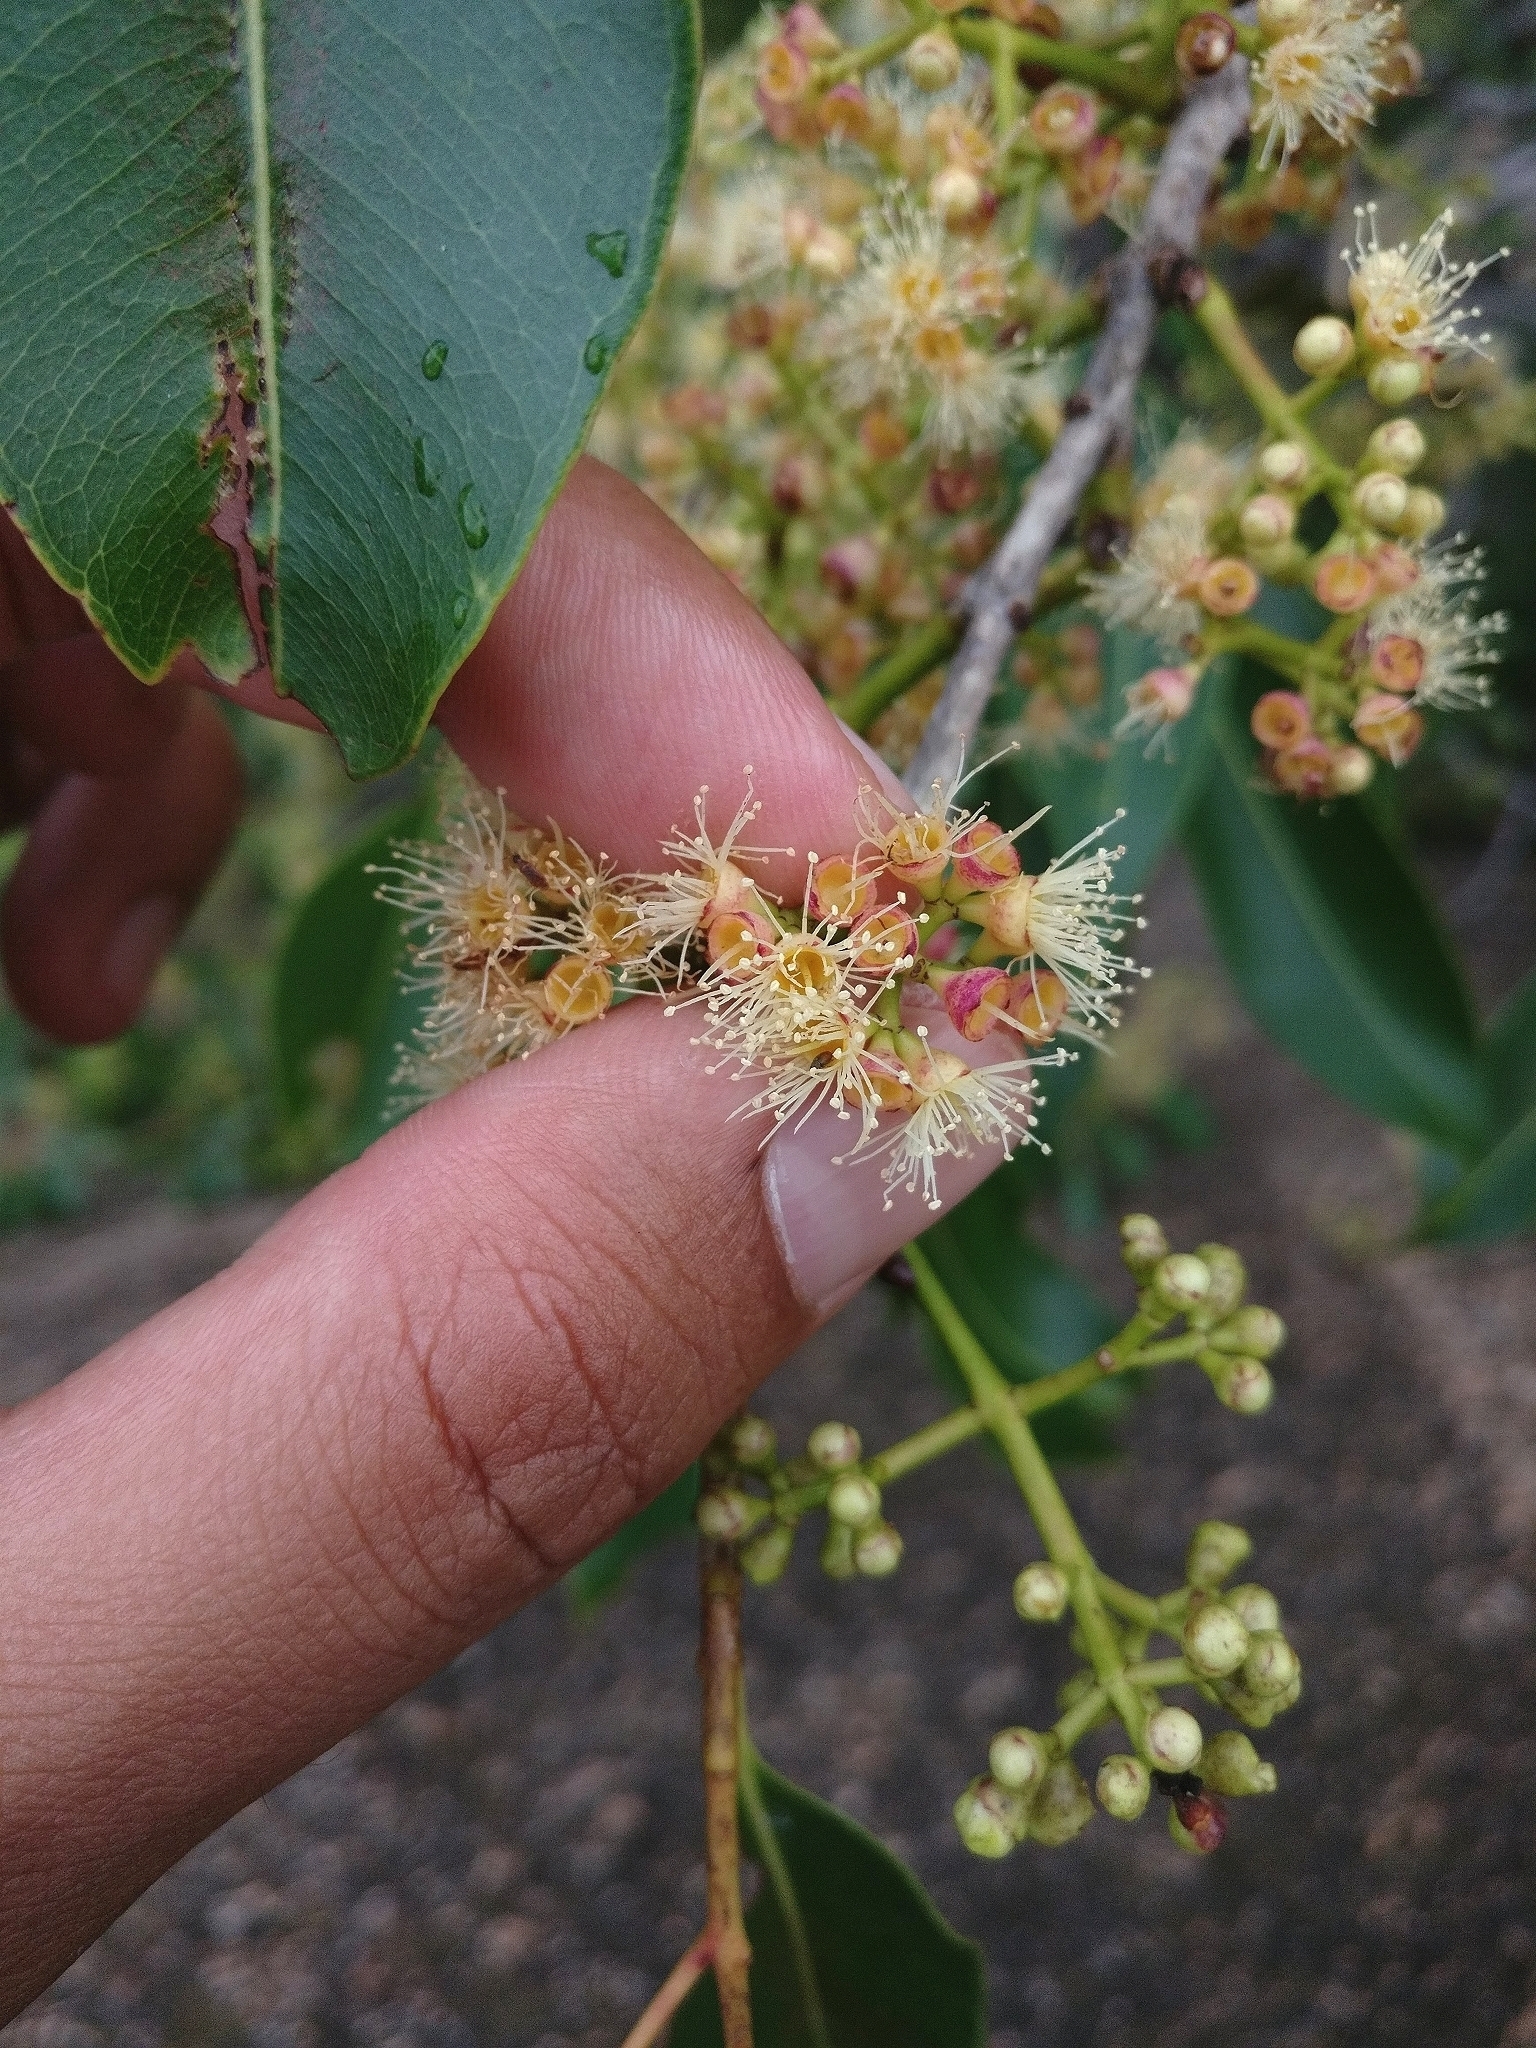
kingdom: Plantae
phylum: Tracheophyta
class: Magnoliopsida
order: Myrtales
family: Myrtaceae
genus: Syzygium
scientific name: Syzygium cumini
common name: Java plum
